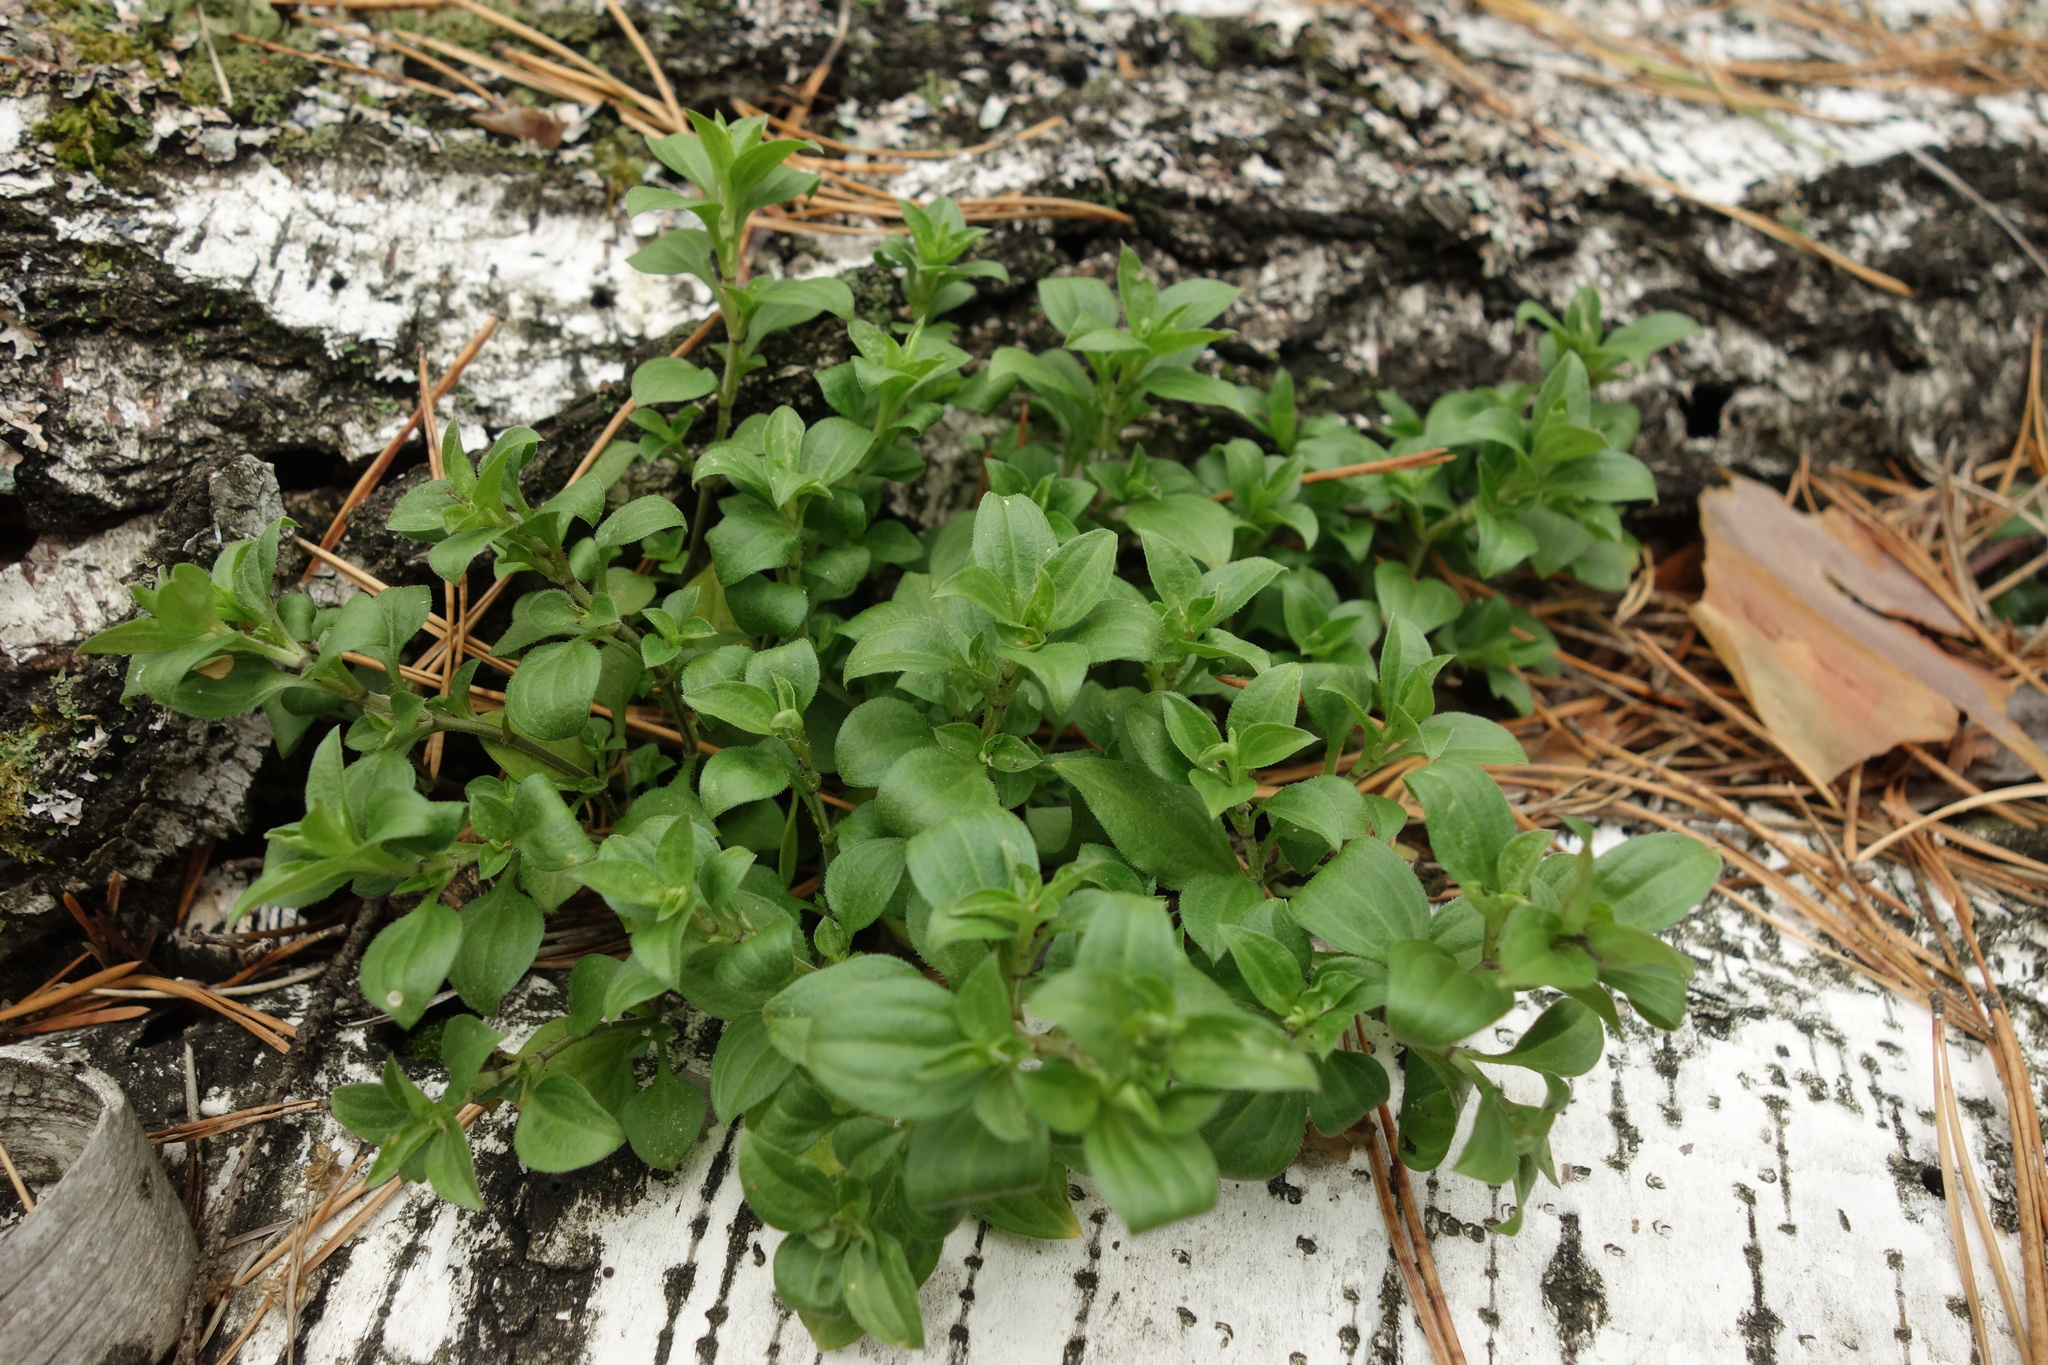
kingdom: Plantae
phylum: Tracheophyta
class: Magnoliopsida
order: Caryophyllales
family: Caryophyllaceae
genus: Moehringia
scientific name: Moehringia trinervia
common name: Three-nerved sandwort
